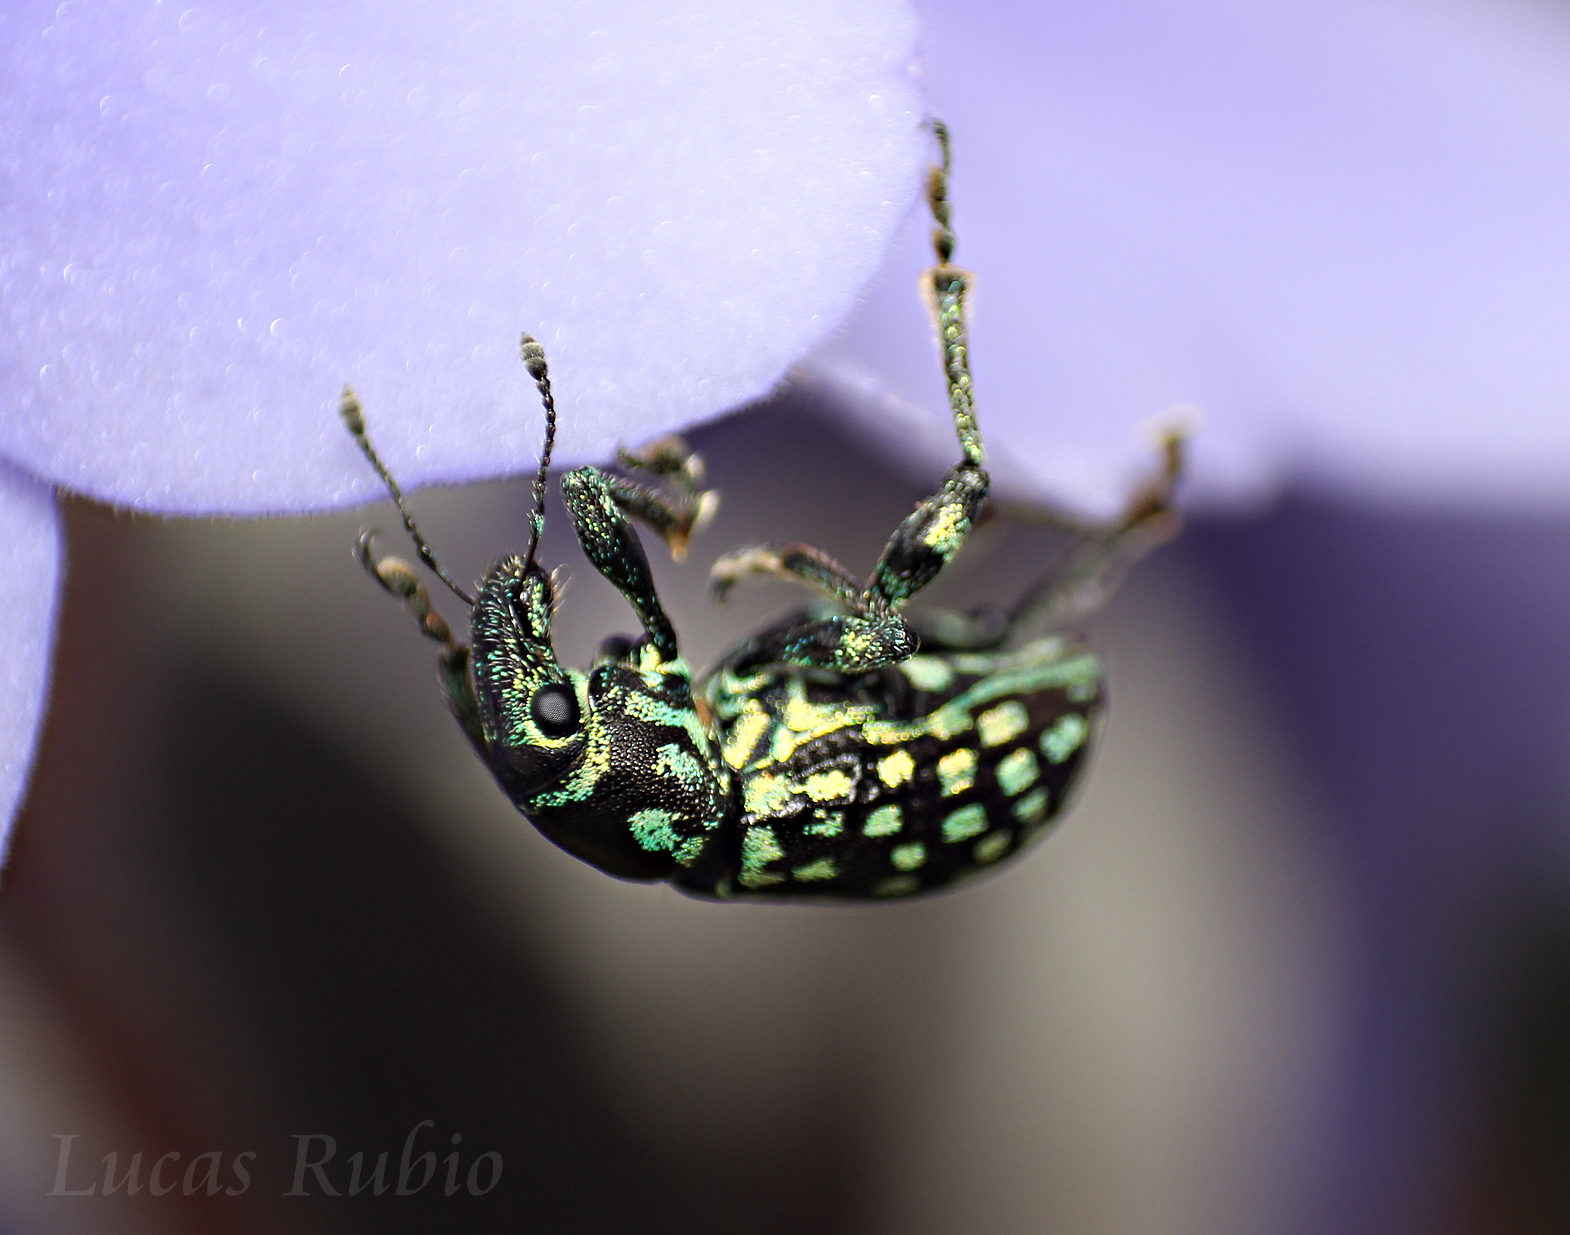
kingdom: Animalia
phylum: Arthropoda
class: Insecta
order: Coleoptera
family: Curculionidae
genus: Lordops
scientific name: Lordops schoenhelri
